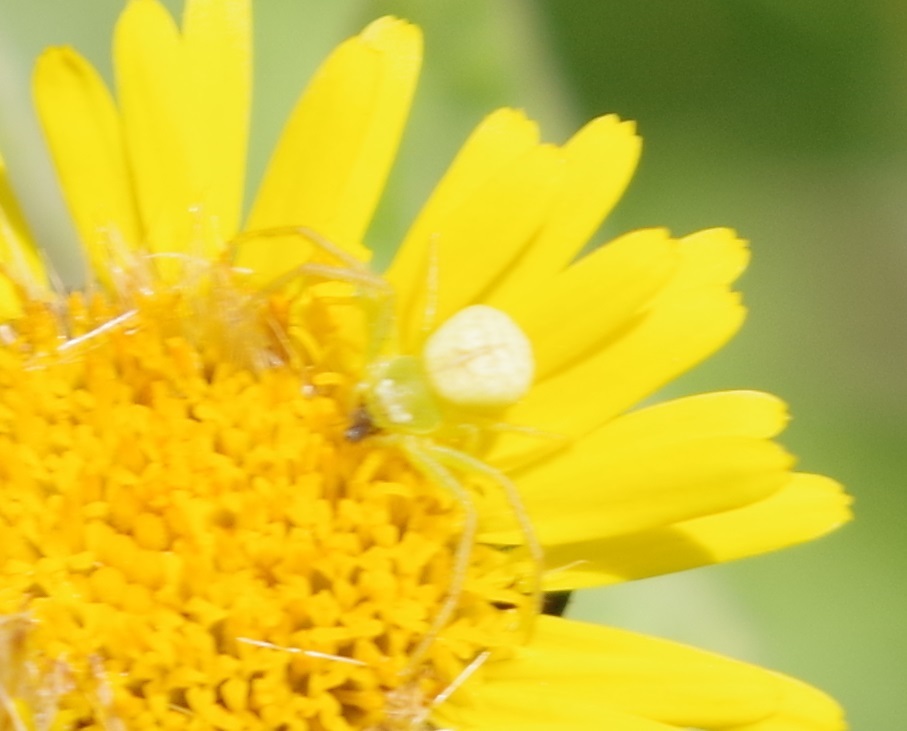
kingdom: Animalia
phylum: Arthropoda
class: Arachnida
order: Araneae
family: Thomisidae
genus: Ebrechtella
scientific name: Ebrechtella tricuspidata
